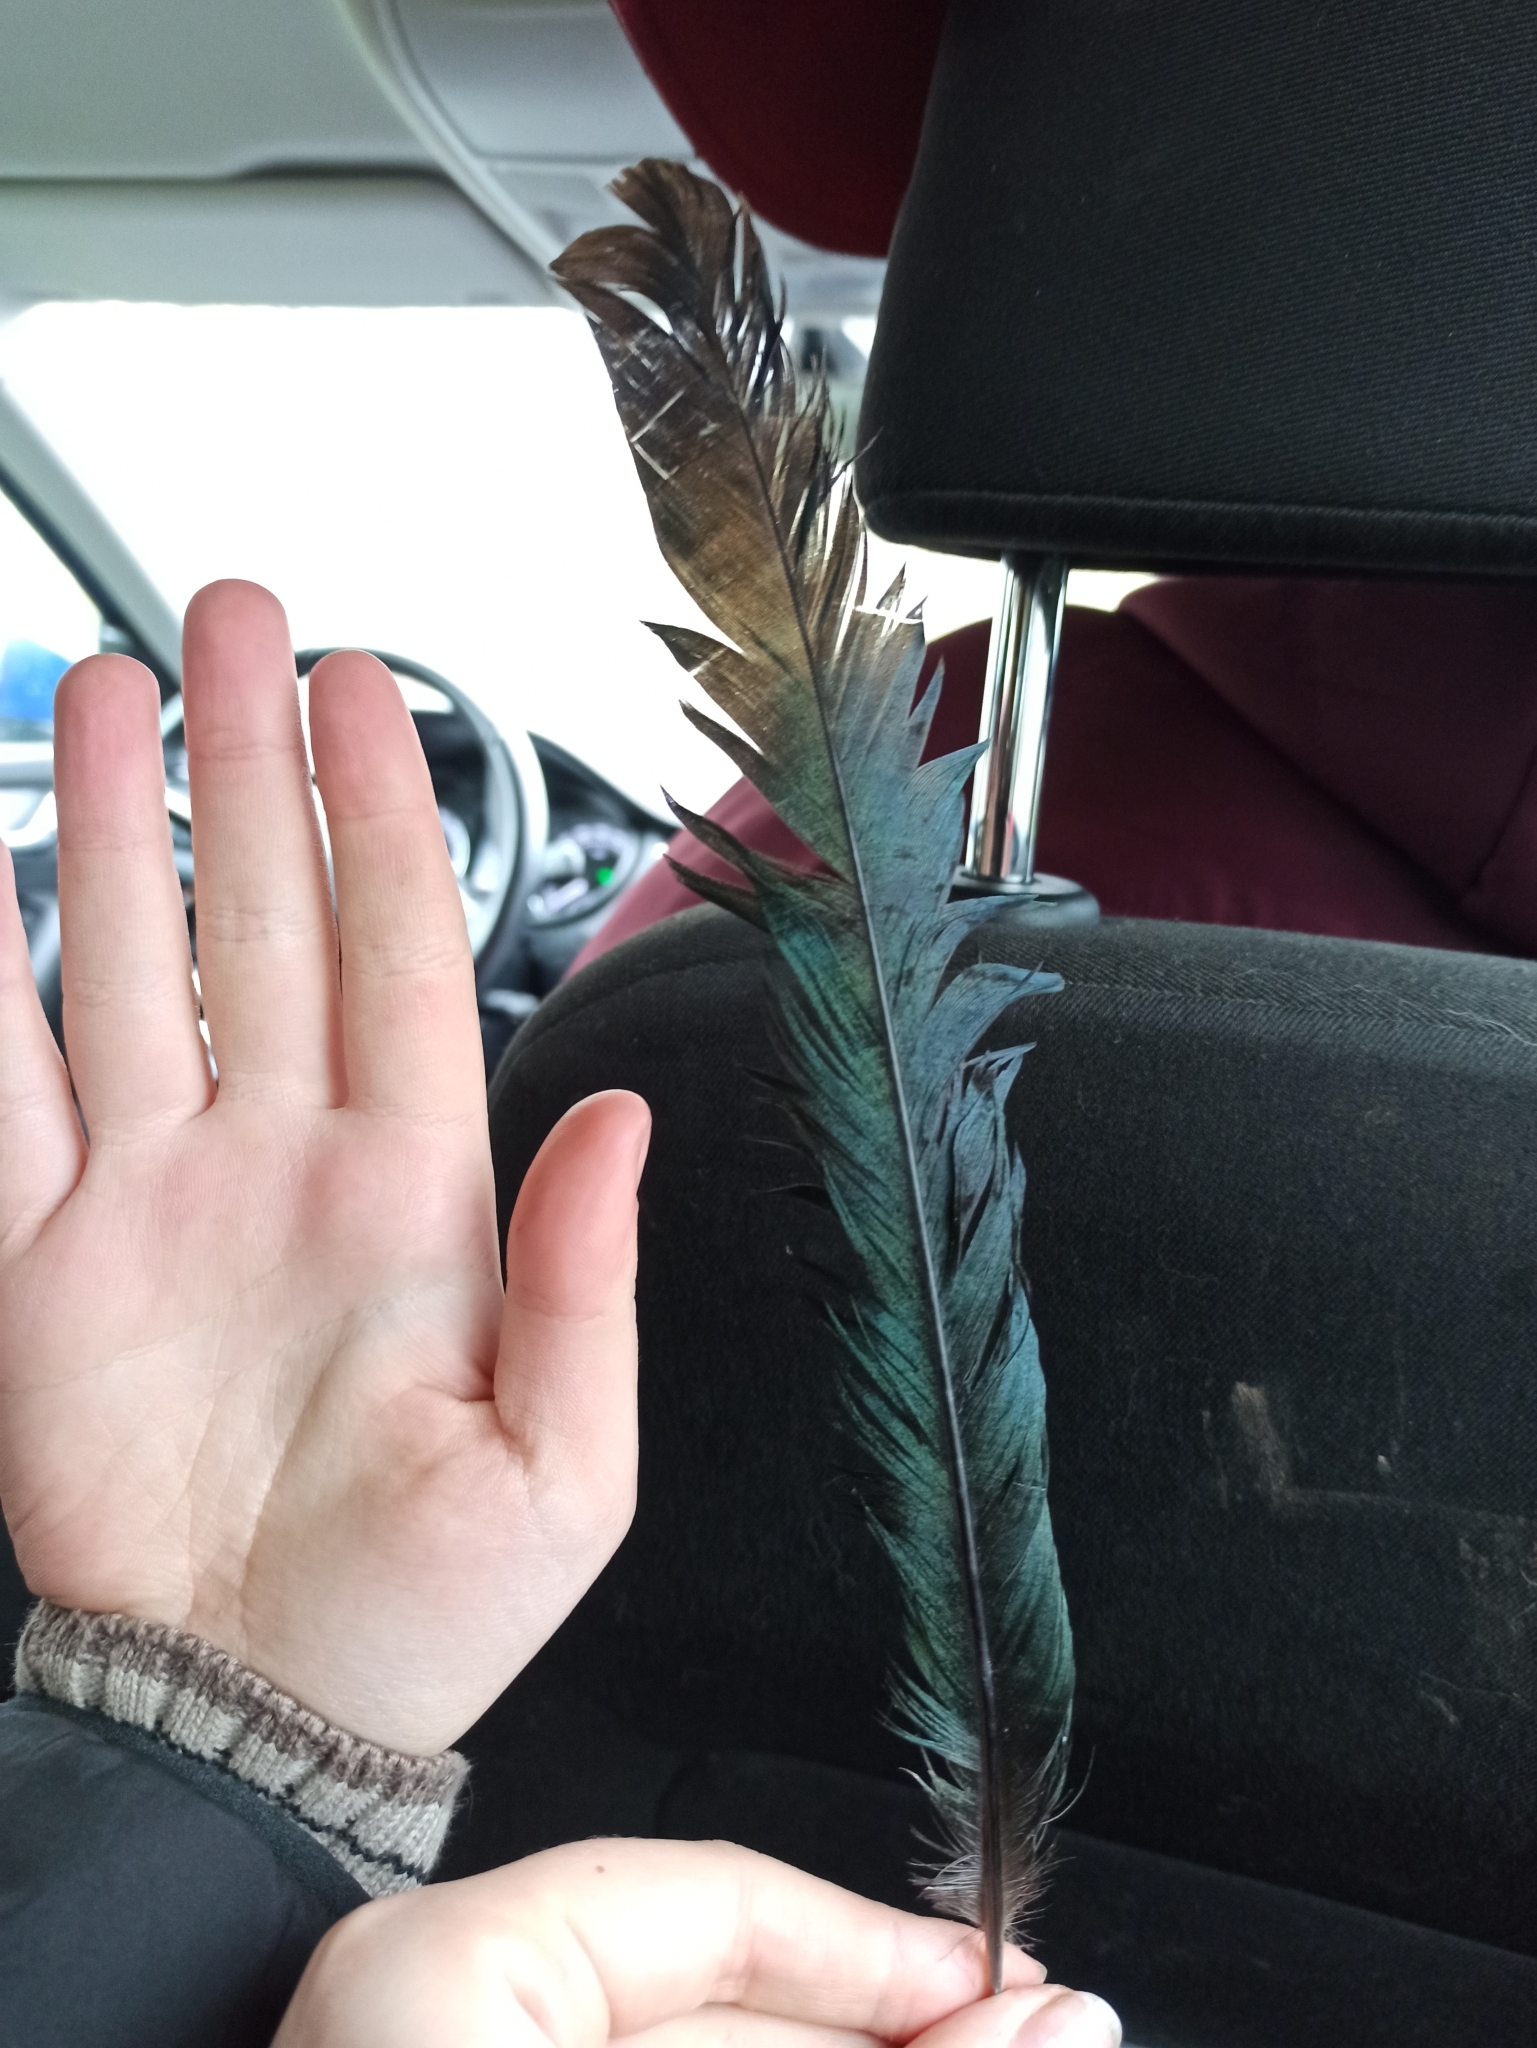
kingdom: Animalia
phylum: Chordata
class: Aves
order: Passeriformes
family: Corvidae
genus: Pica
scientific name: Pica pica
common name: Eurasian magpie
